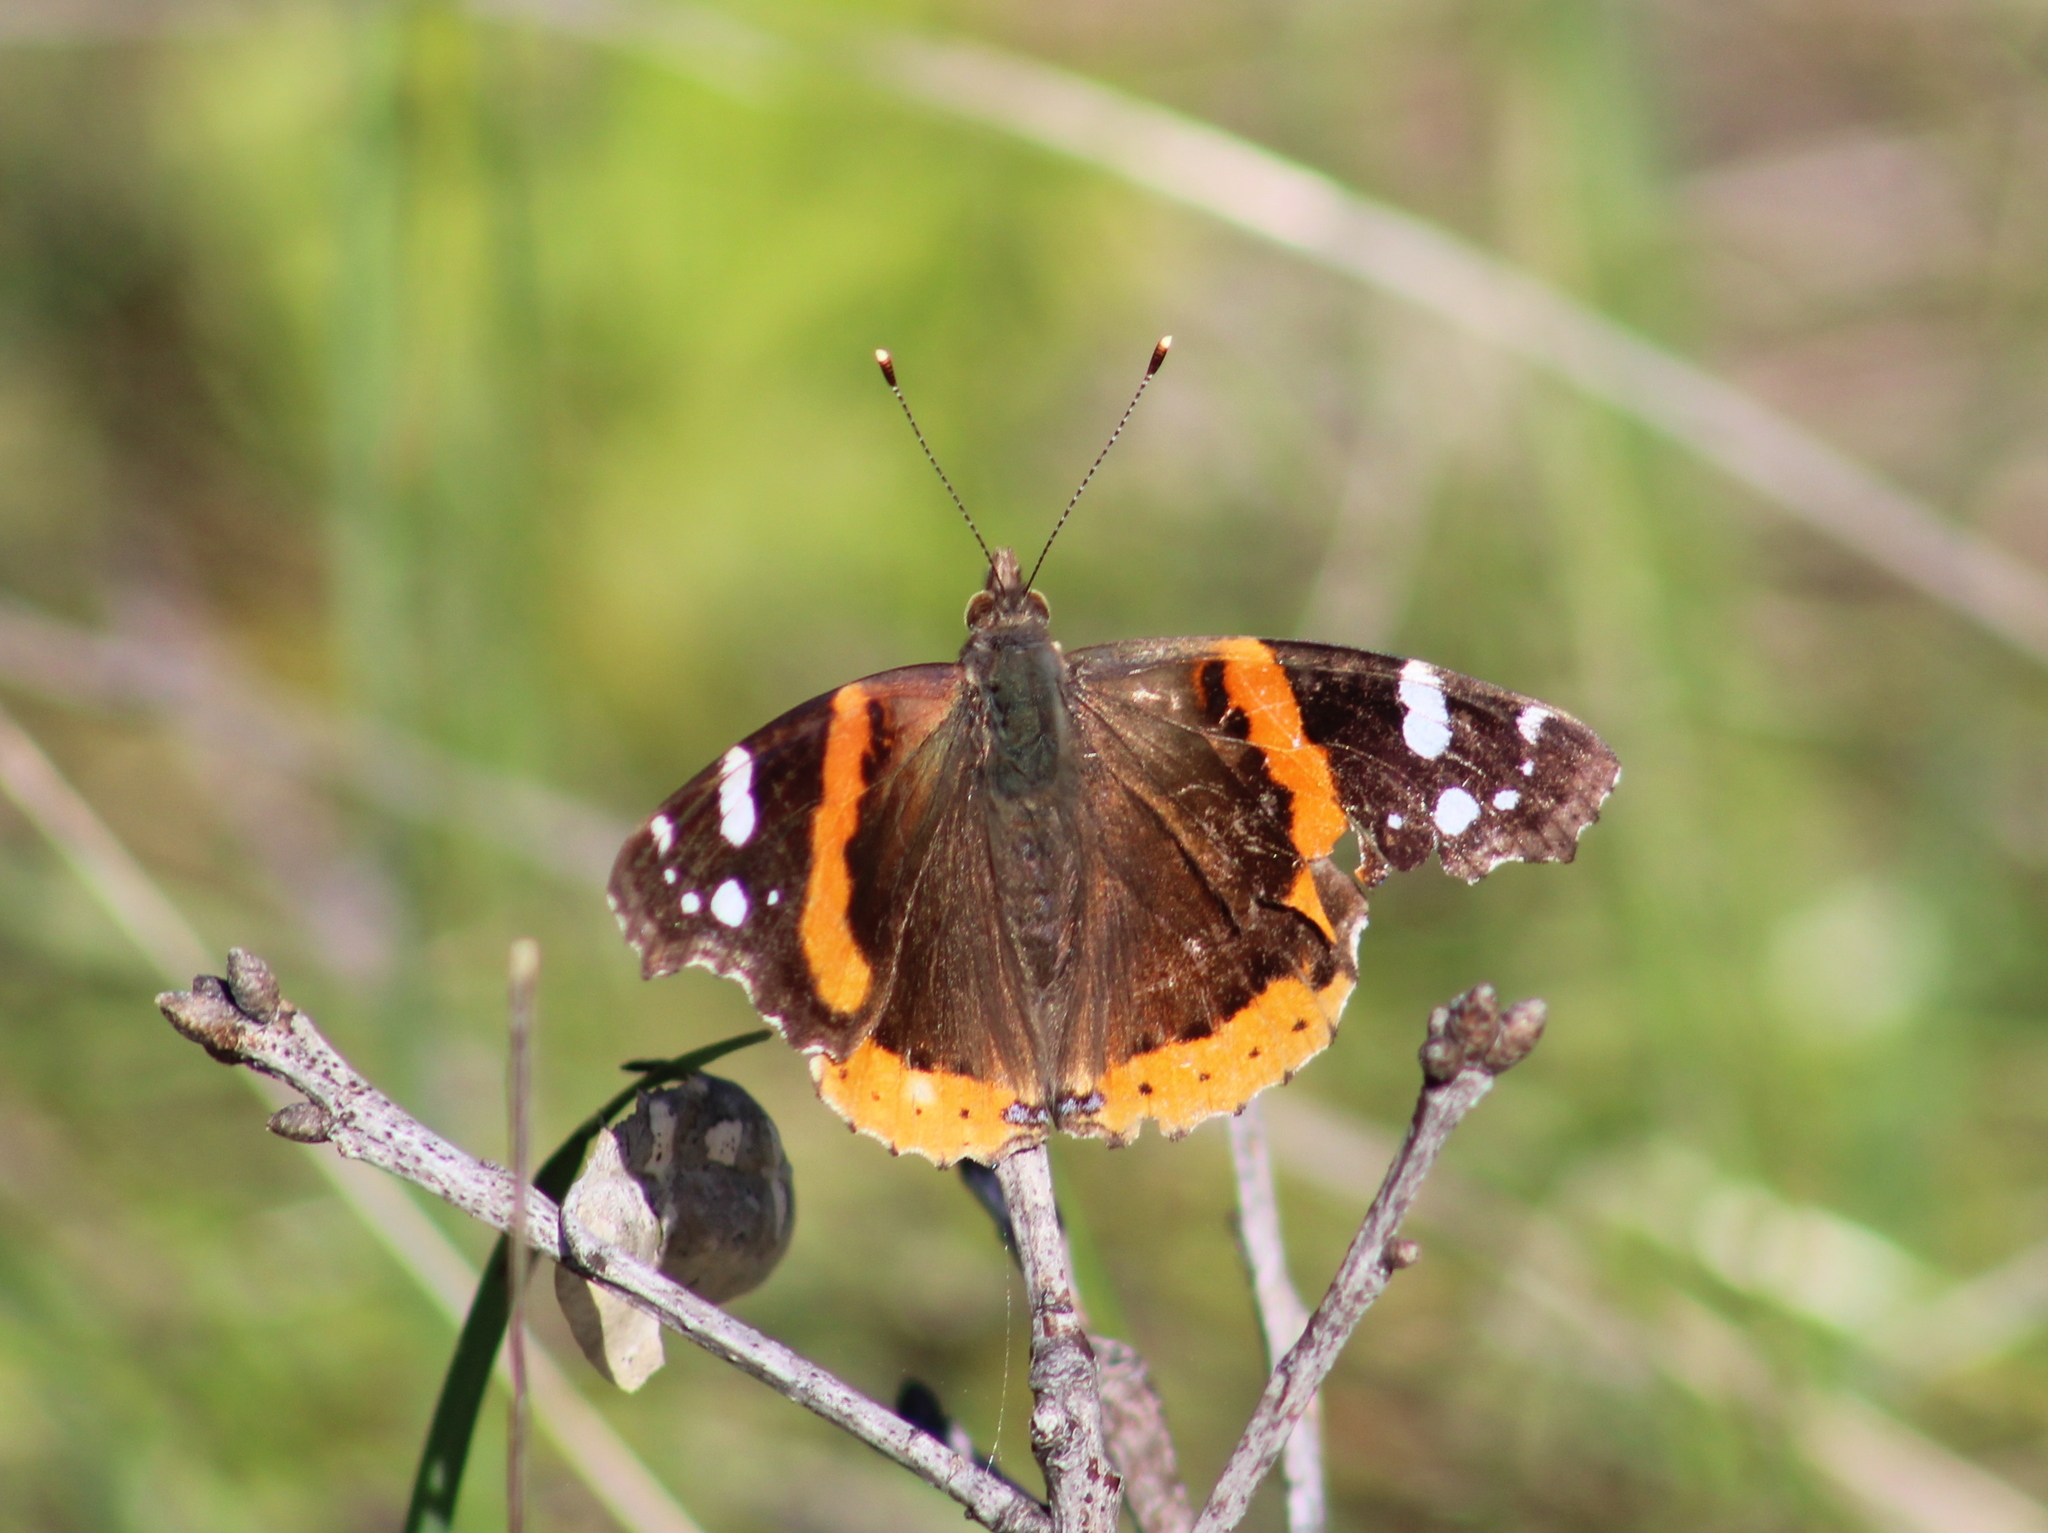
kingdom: Animalia
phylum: Arthropoda
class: Insecta
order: Lepidoptera
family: Nymphalidae
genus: Vanessa
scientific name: Vanessa atalanta
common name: Red admiral
